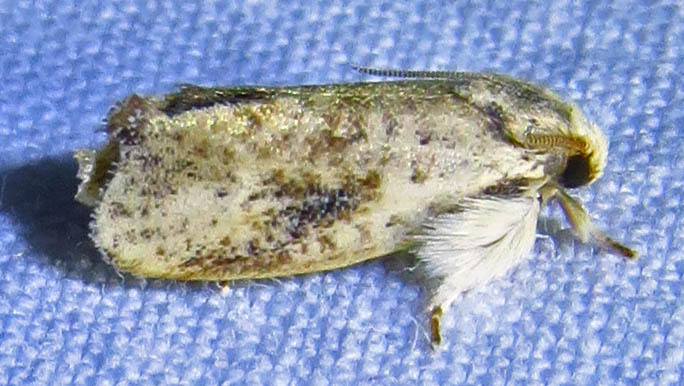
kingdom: Animalia
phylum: Arthropoda
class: Insecta
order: Lepidoptera
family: Tineidae
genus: Acrolophus
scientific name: Acrolophus mycetophagus
